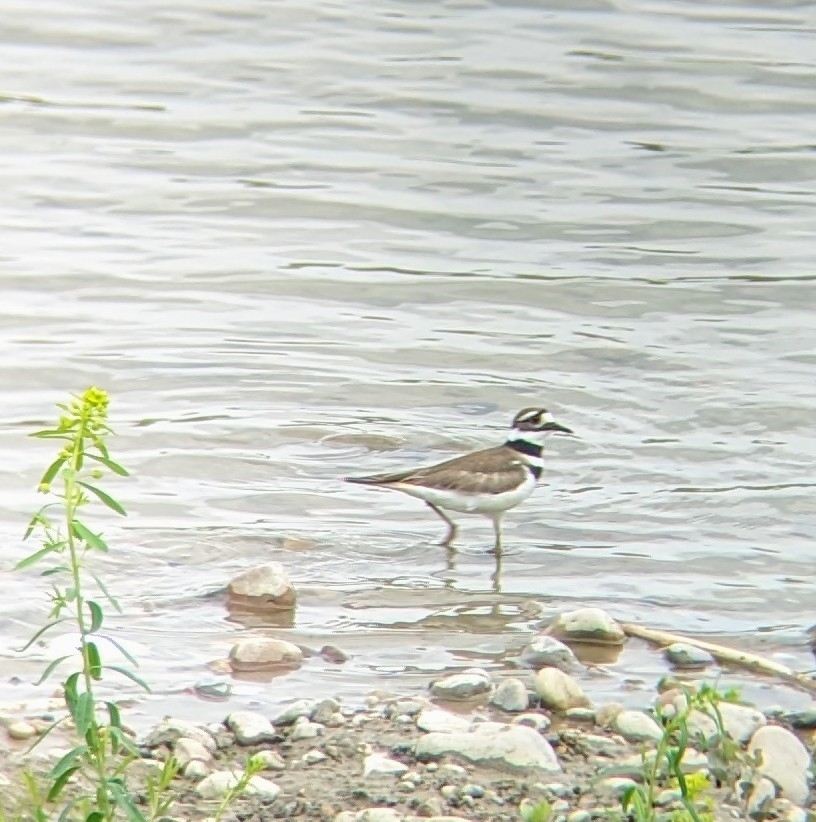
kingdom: Animalia
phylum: Chordata
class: Aves
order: Charadriiformes
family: Charadriidae
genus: Charadrius
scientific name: Charadrius vociferus
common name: Killdeer
